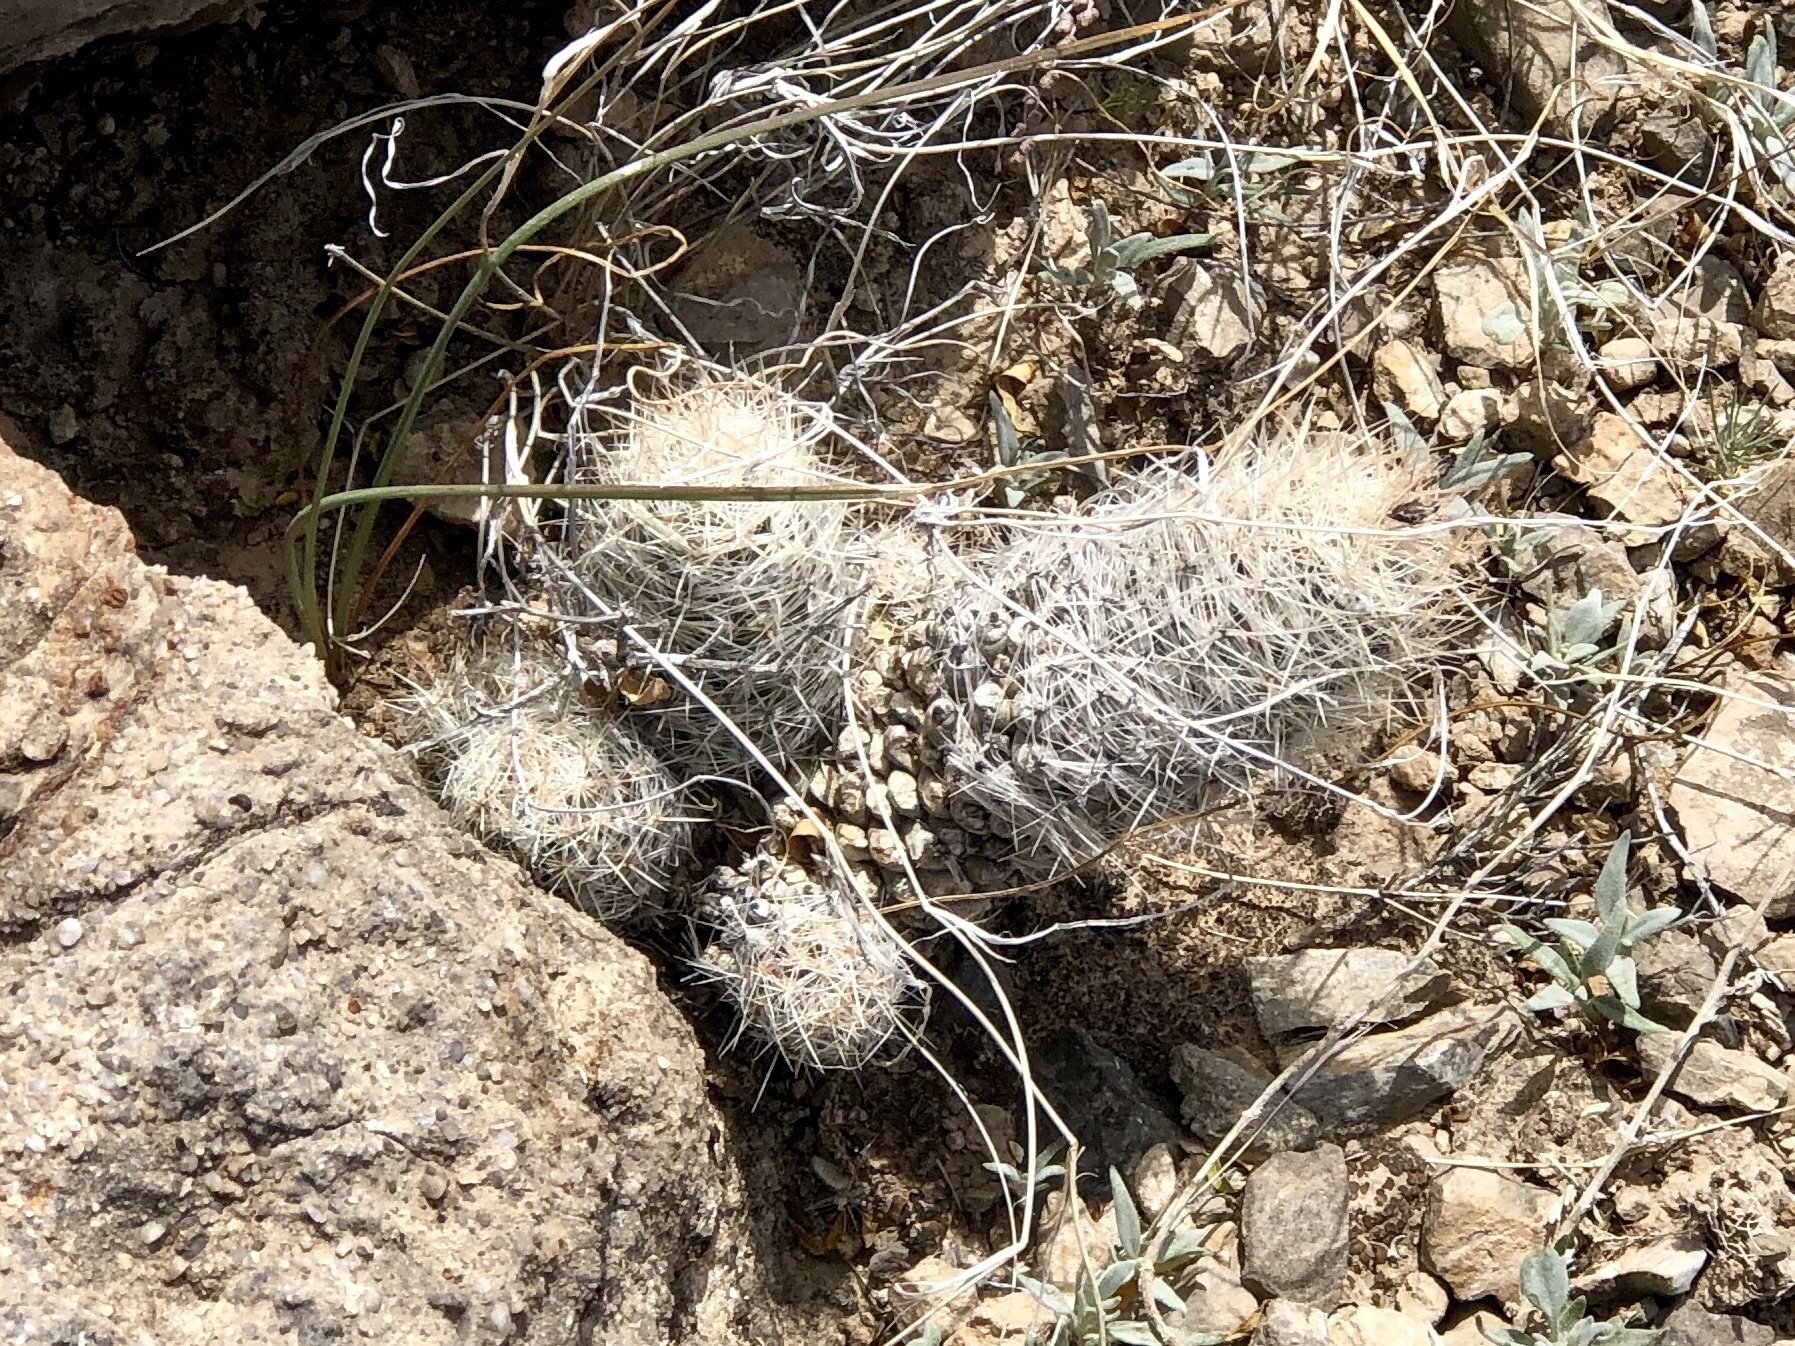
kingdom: Plantae
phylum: Tracheophyta
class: Magnoliopsida
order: Caryophyllales
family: Cactaceae
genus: Pelecyphora
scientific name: Pelecyphora tuberculosa
